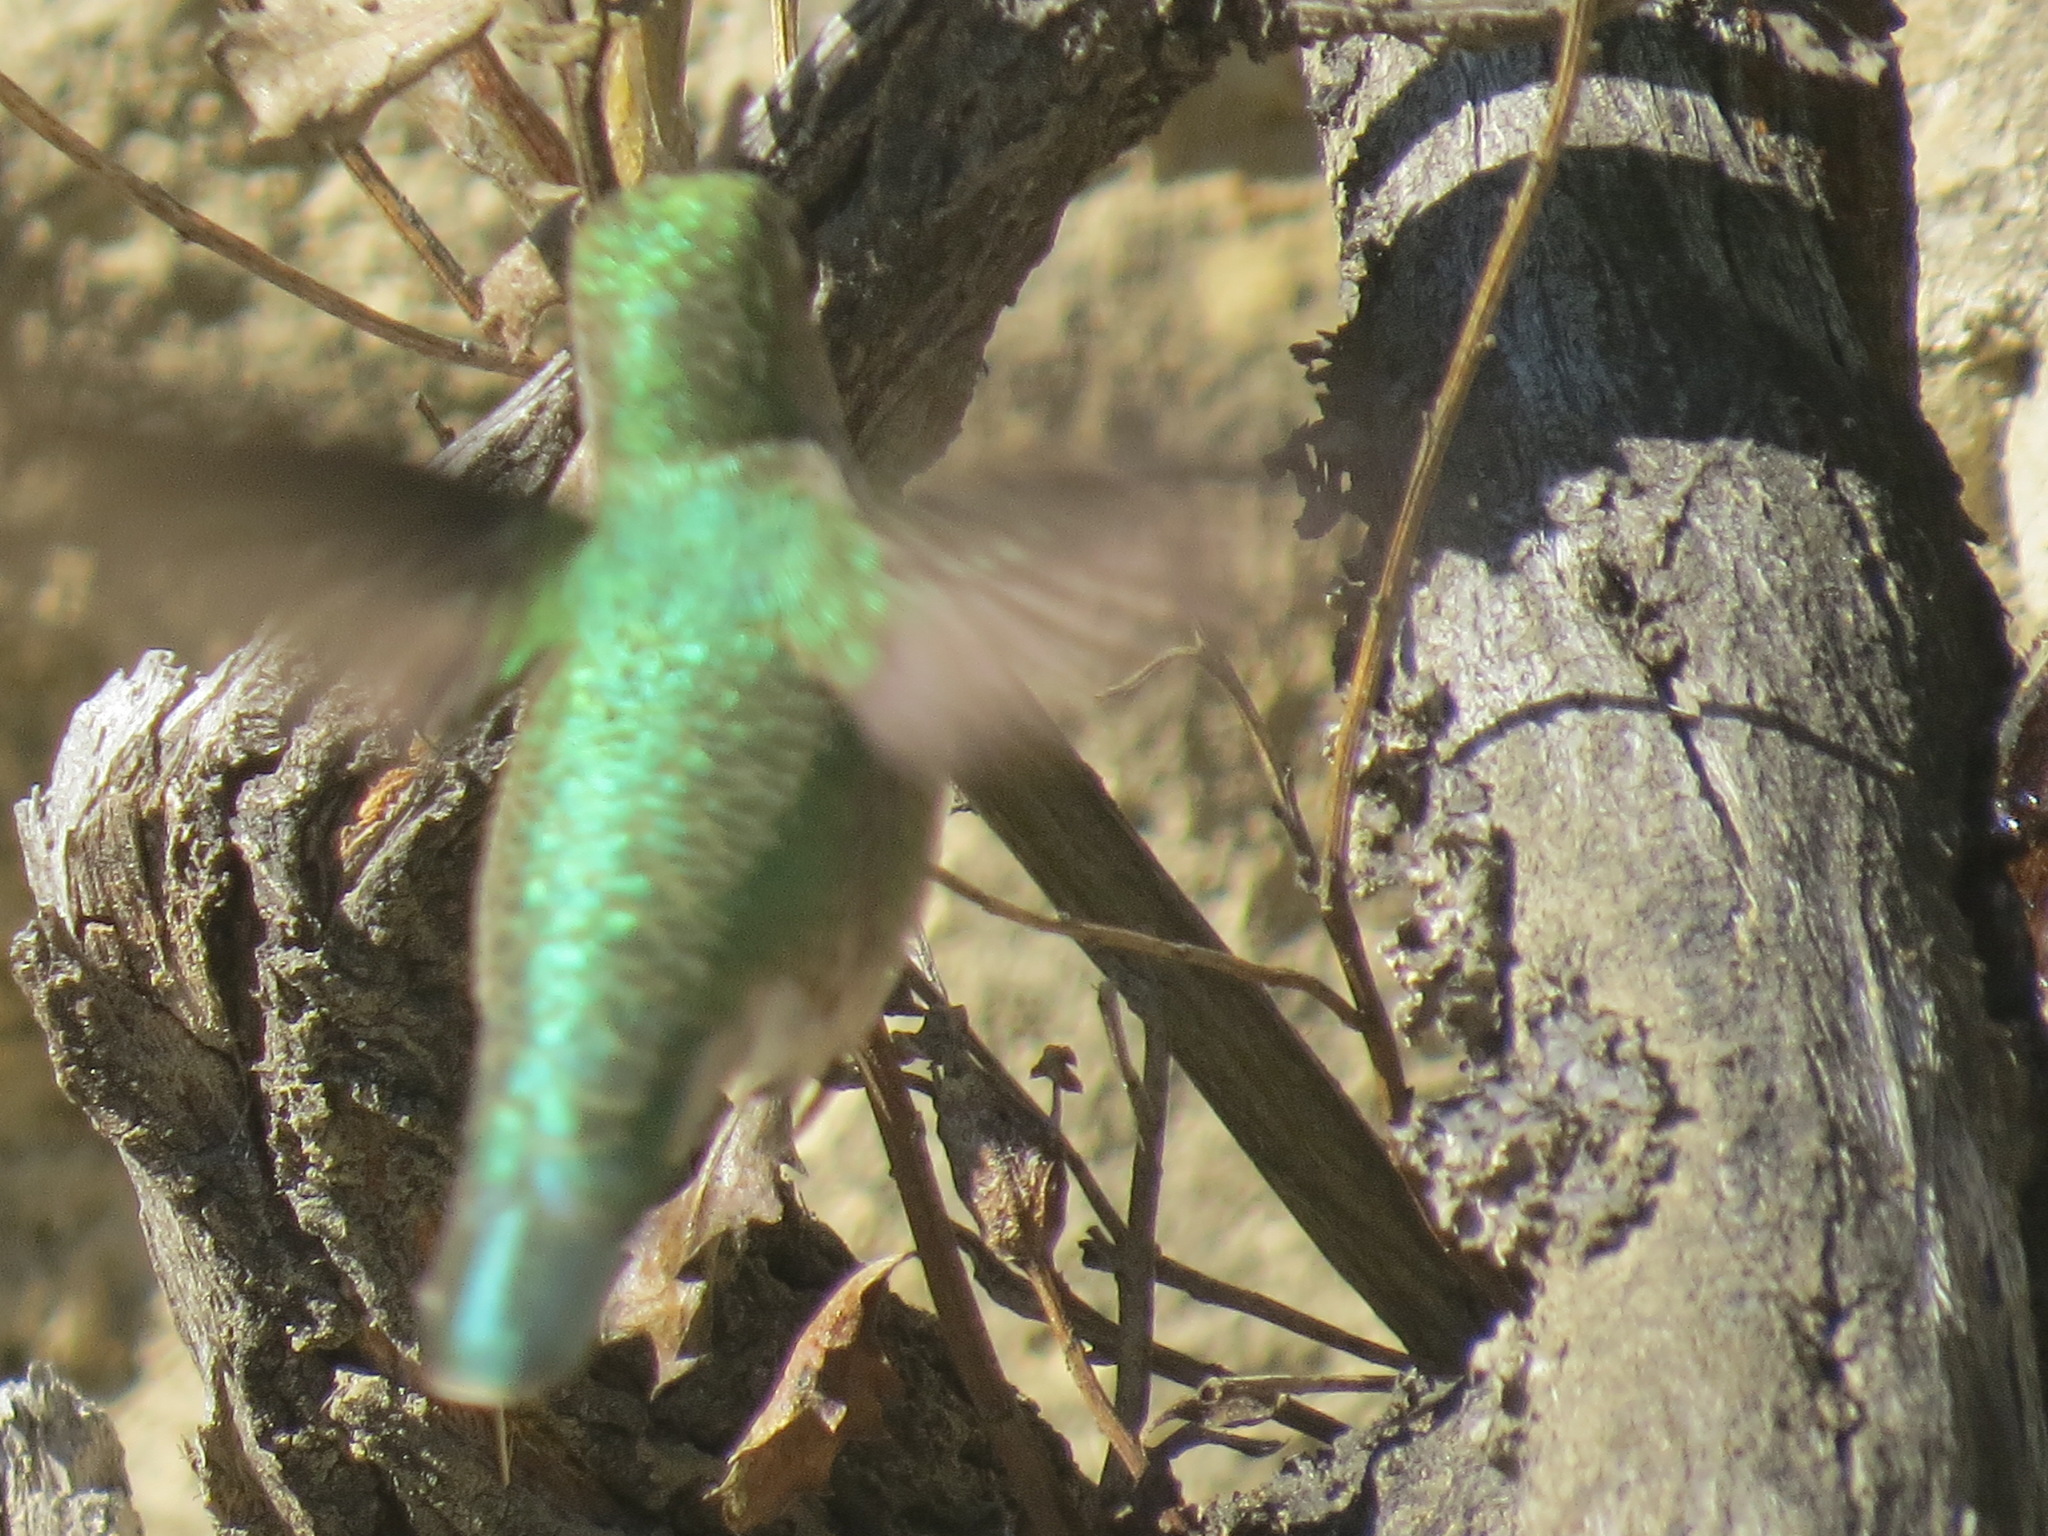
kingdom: Animalia
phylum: Chordata
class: Aves
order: Apodiformes
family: Trochilidae
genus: Calypte
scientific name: Calypte anna
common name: Anna's hummingbird
